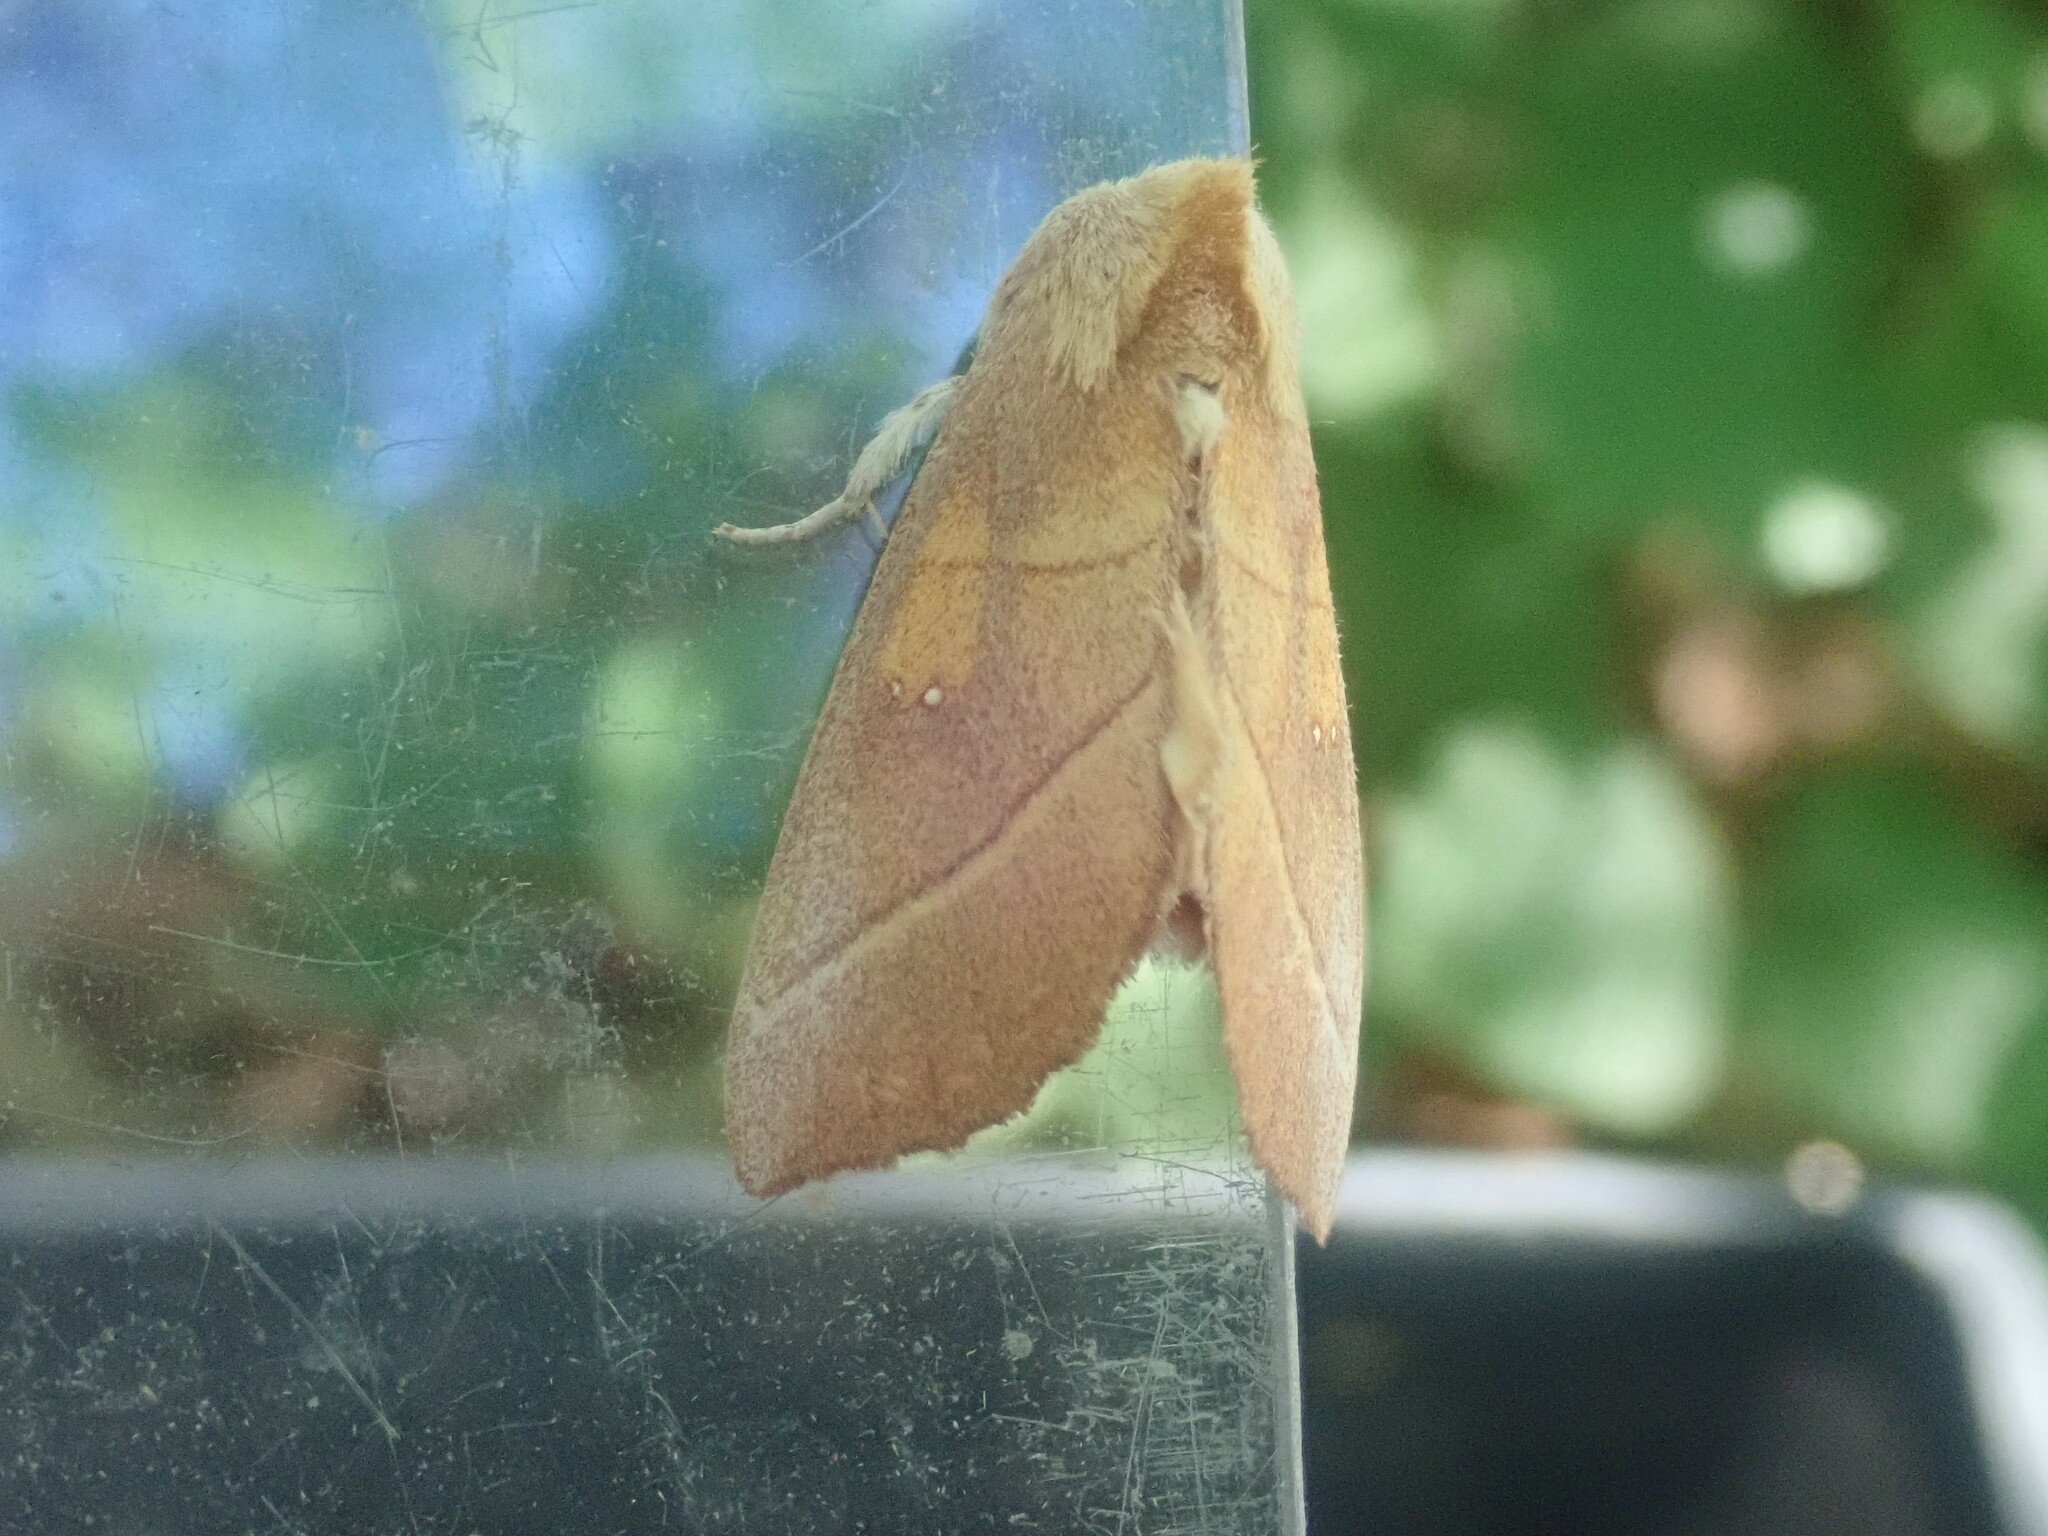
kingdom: Animalia
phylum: Arthropoda
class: Insecta
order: Lepidoptera
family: Notodontidae
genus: Nadata
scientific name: Nadata gibbosa
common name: White-dotted prominent
